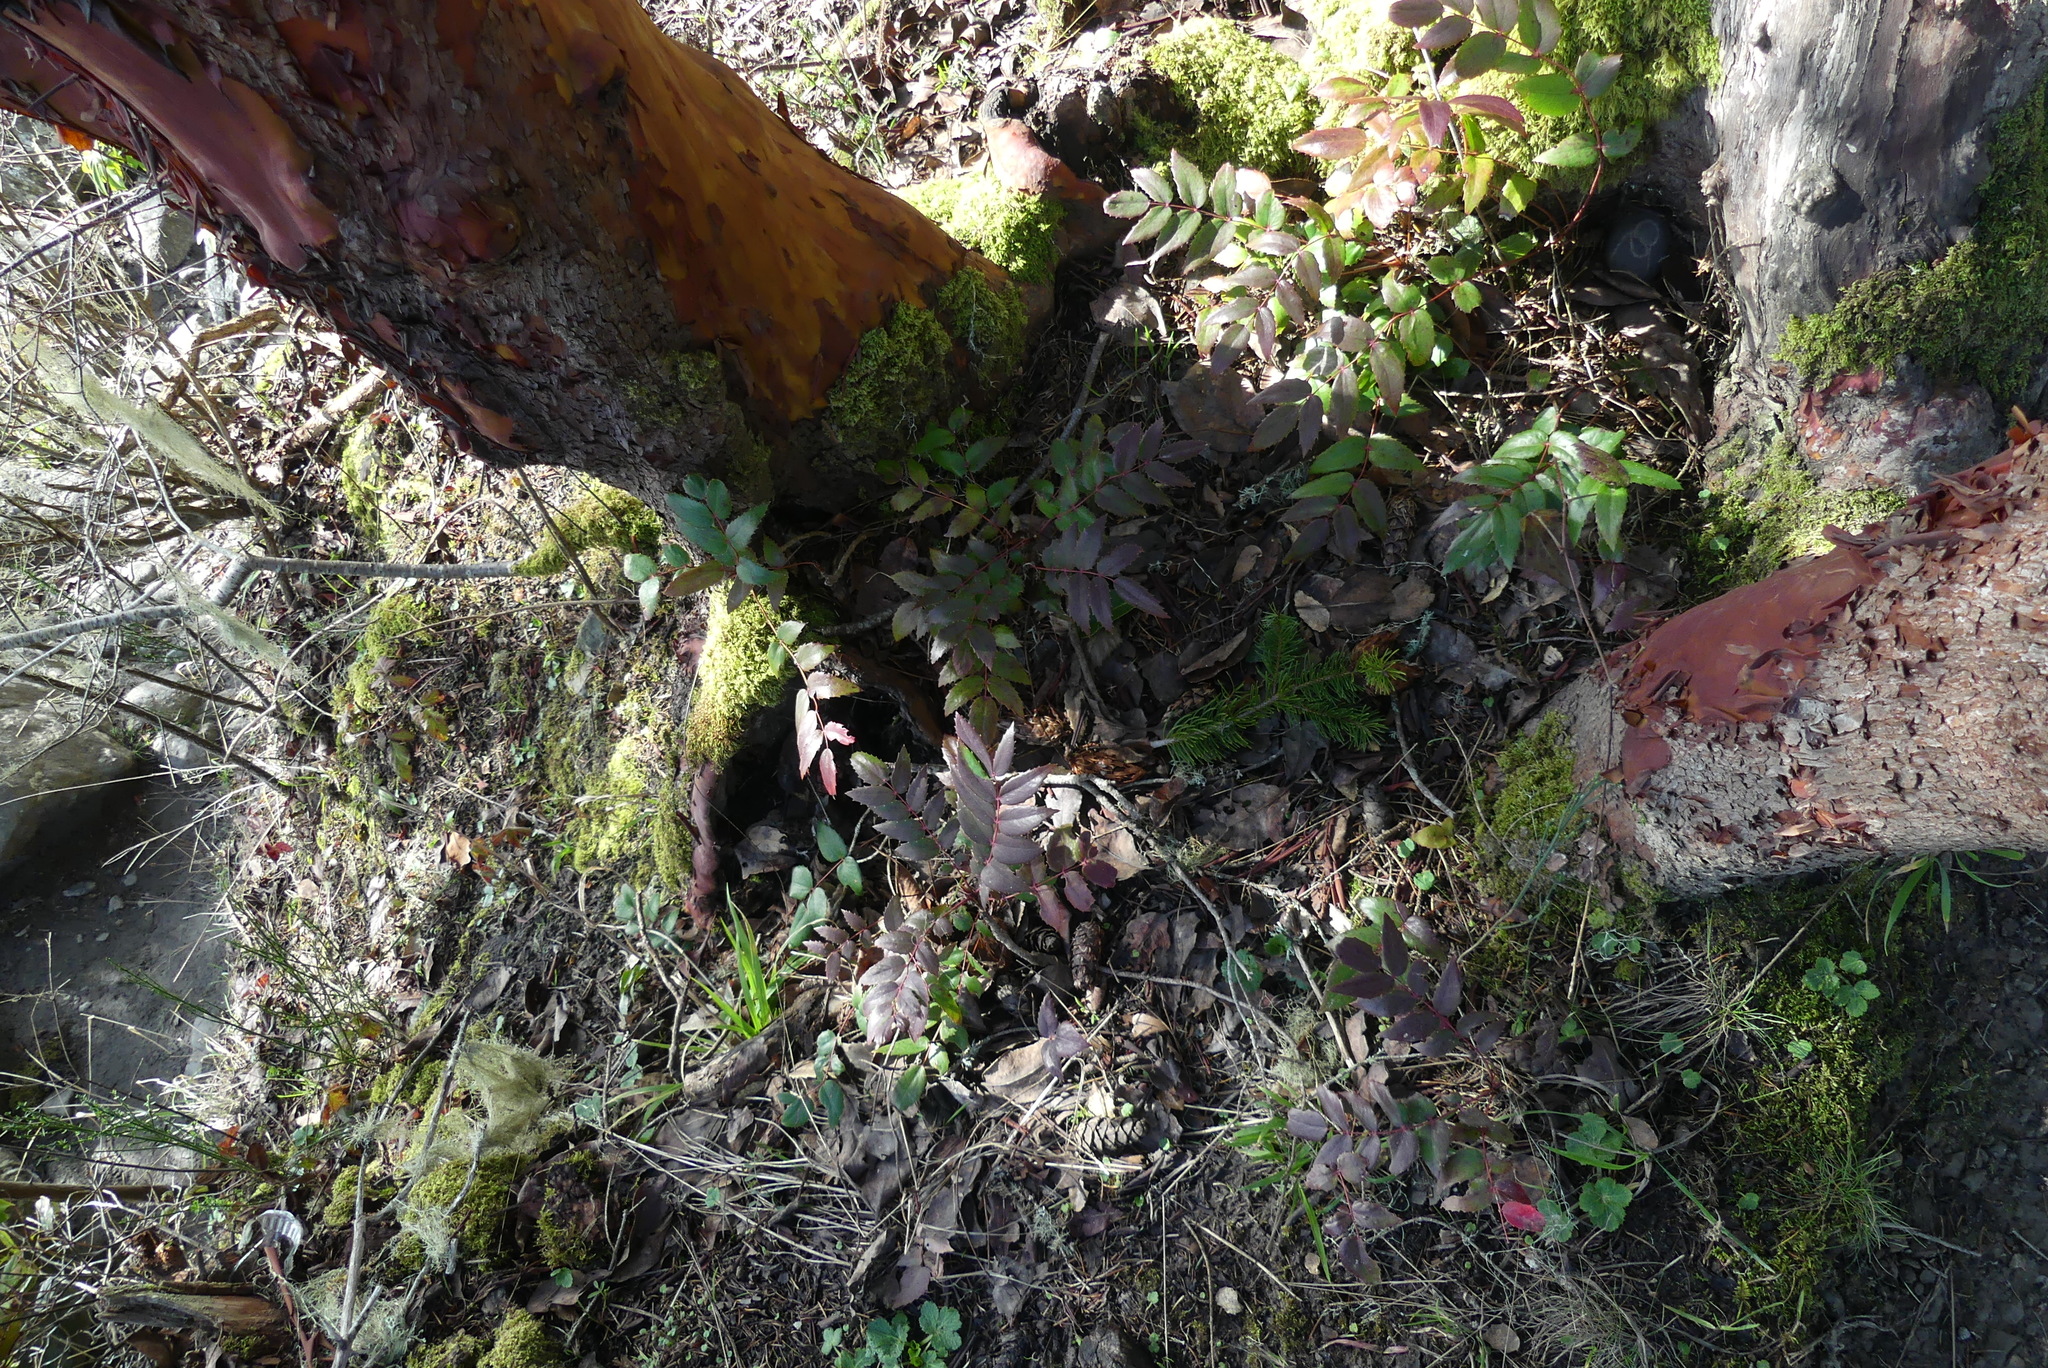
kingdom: Plantae
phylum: Tracheophyta
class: Magnoliopsida
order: Ranunculales
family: Berberidaceae
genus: Mahonia
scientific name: Mahonia nervosa
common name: Cascade oregon-grape
